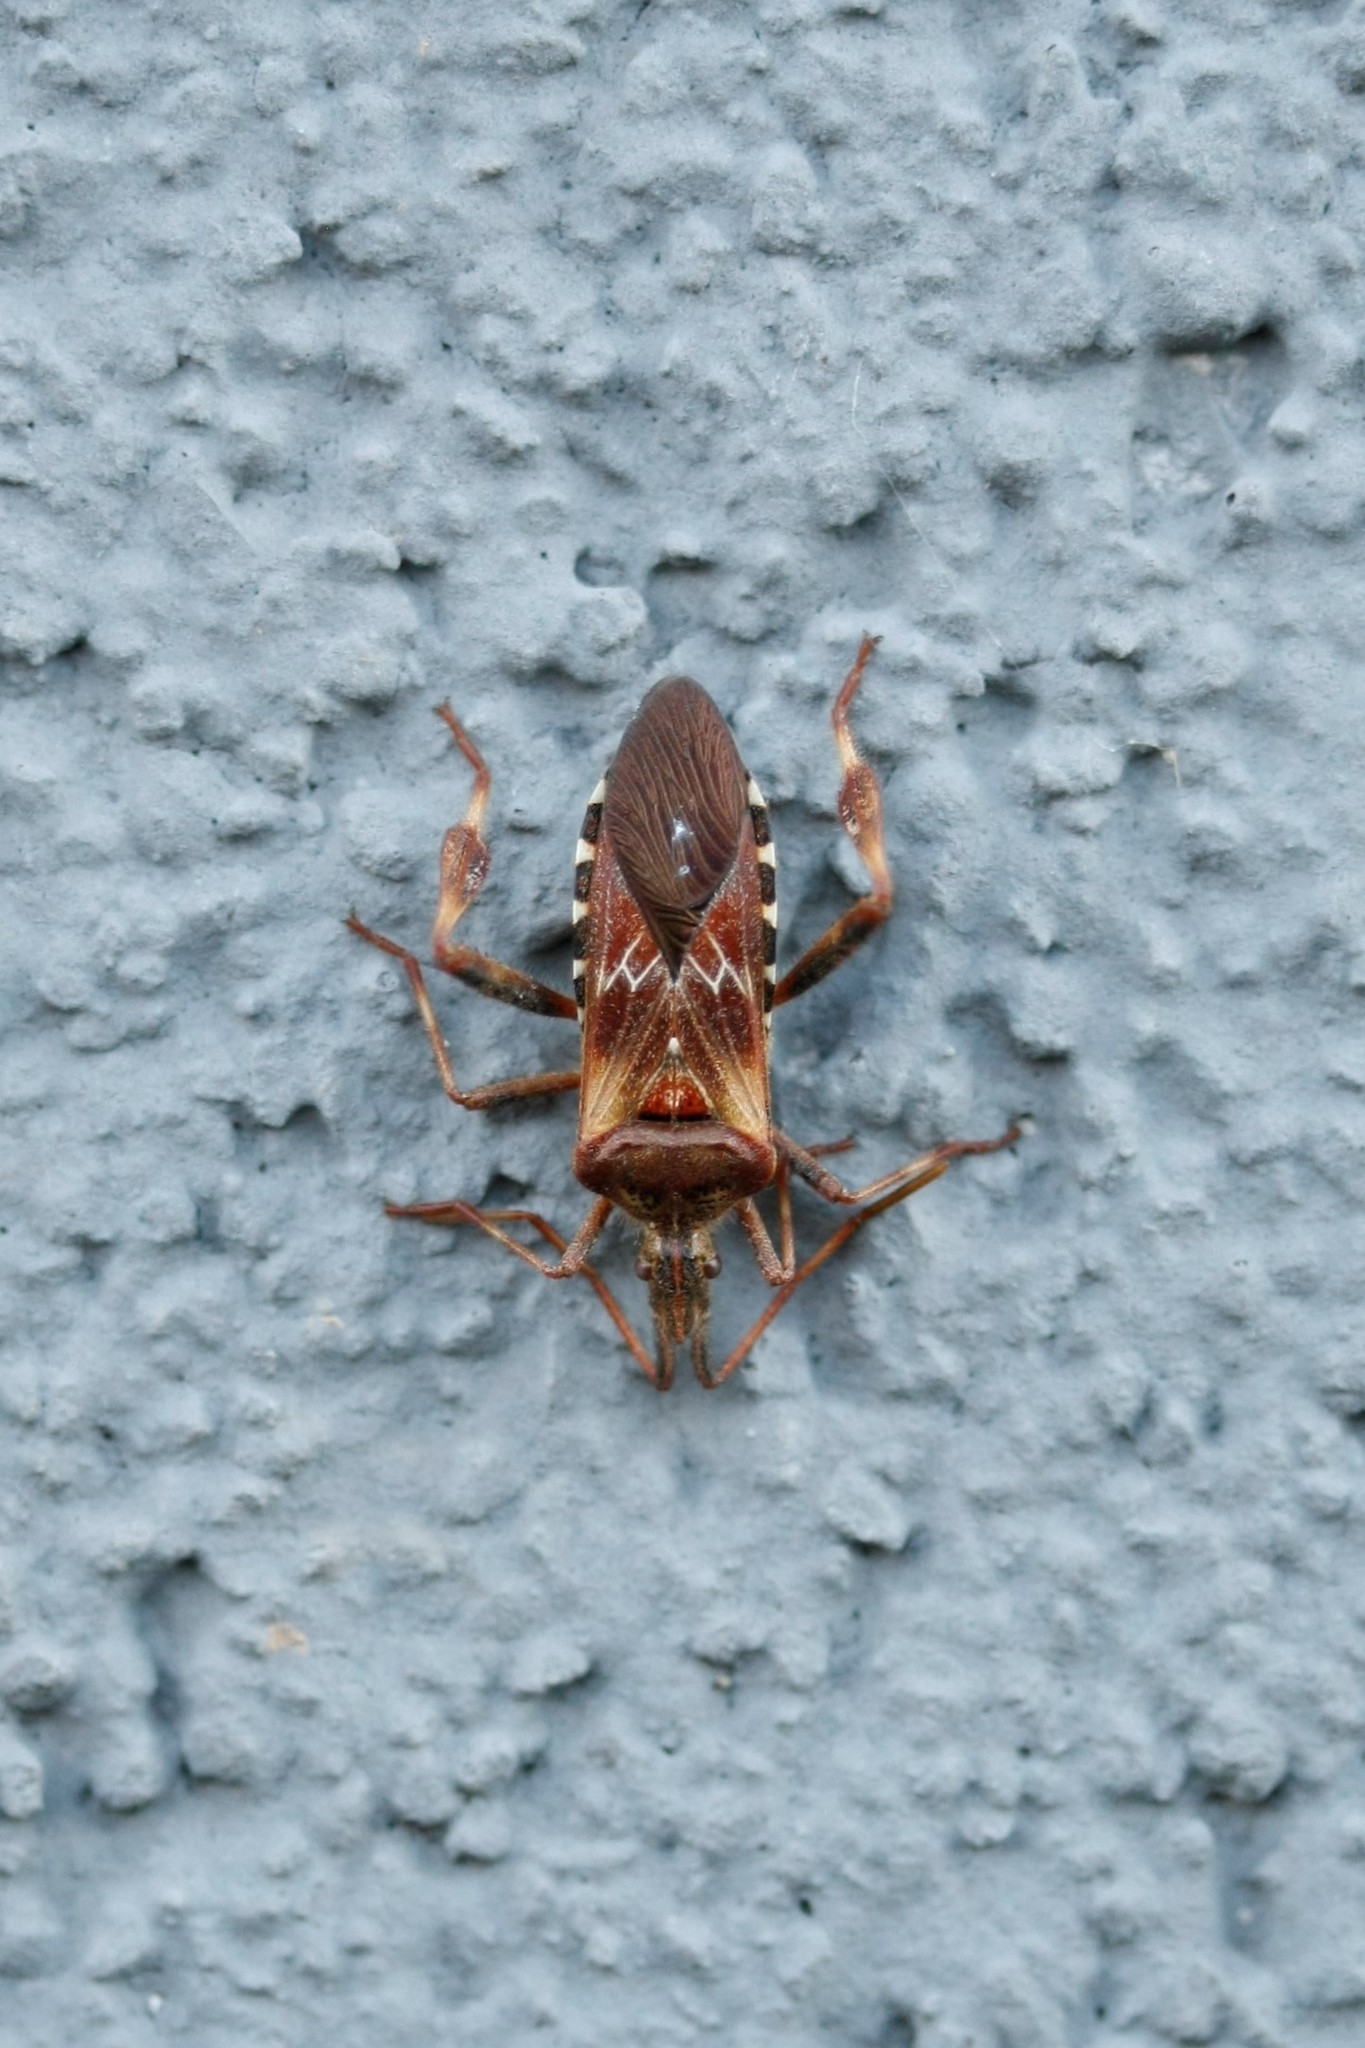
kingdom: Animalia
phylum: Arthropoda
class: Insecta
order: Hemiptera
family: Coreidae
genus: Leptoglossus
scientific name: Leptoglossus occidentalis
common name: Western conifer-seed bug
